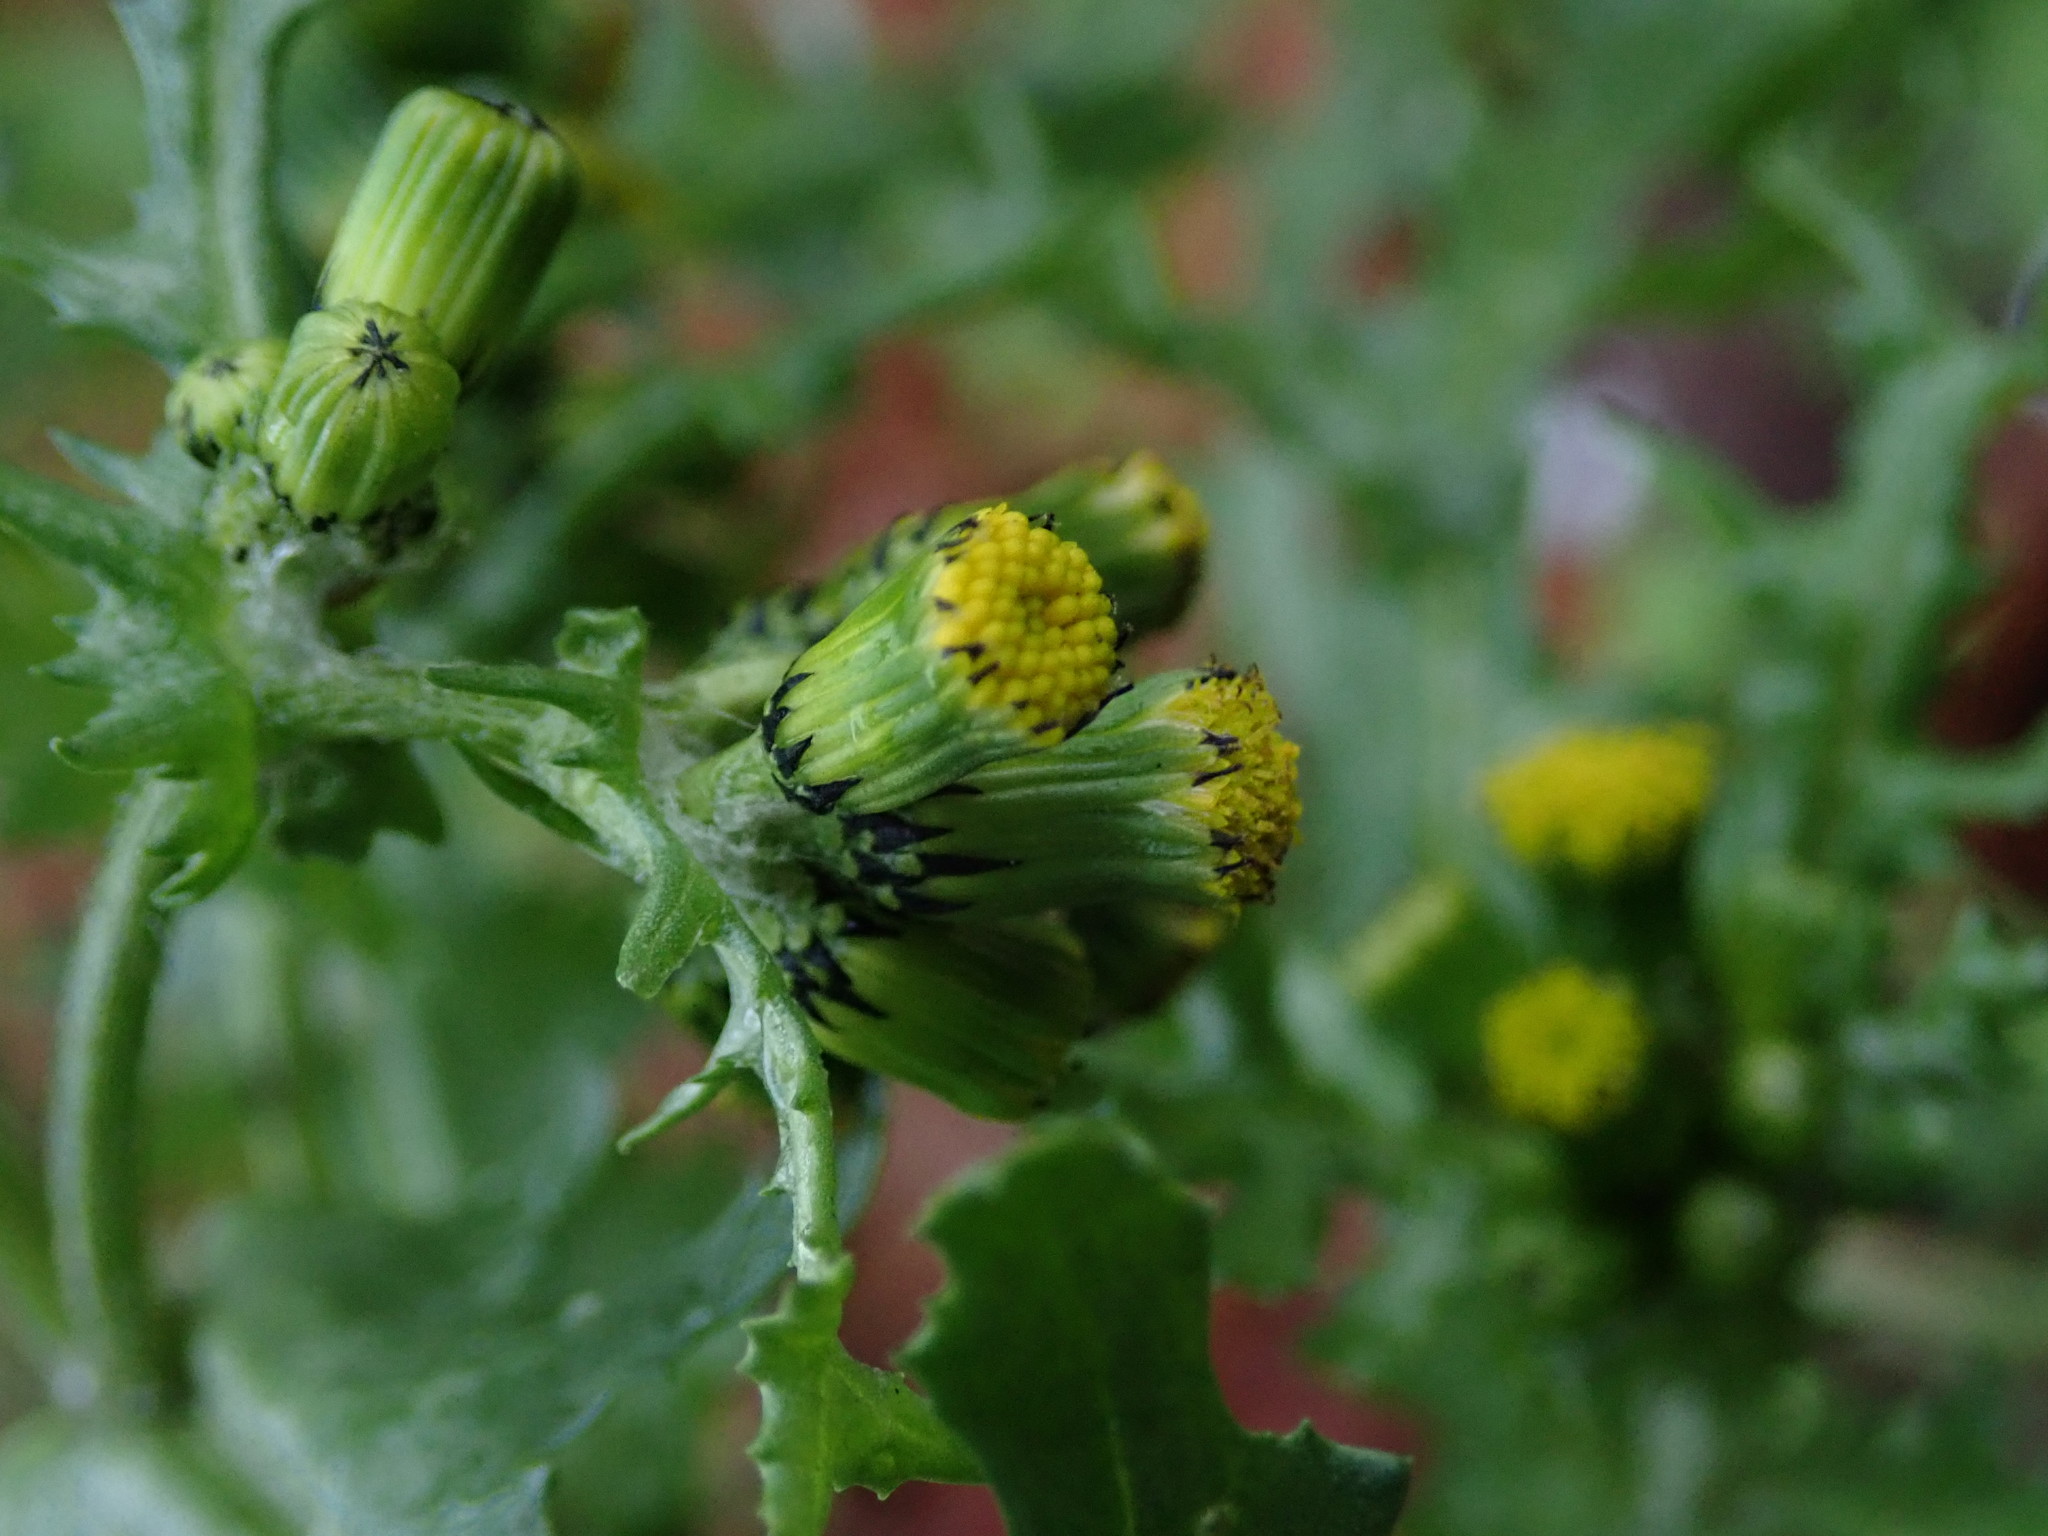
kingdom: Plantae
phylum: Tracheophyta
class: Magnoliopsida
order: Asterales
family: Asteraceae
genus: Senecio
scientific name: Senecio vulgaris
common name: Old-man-in-the-spring
